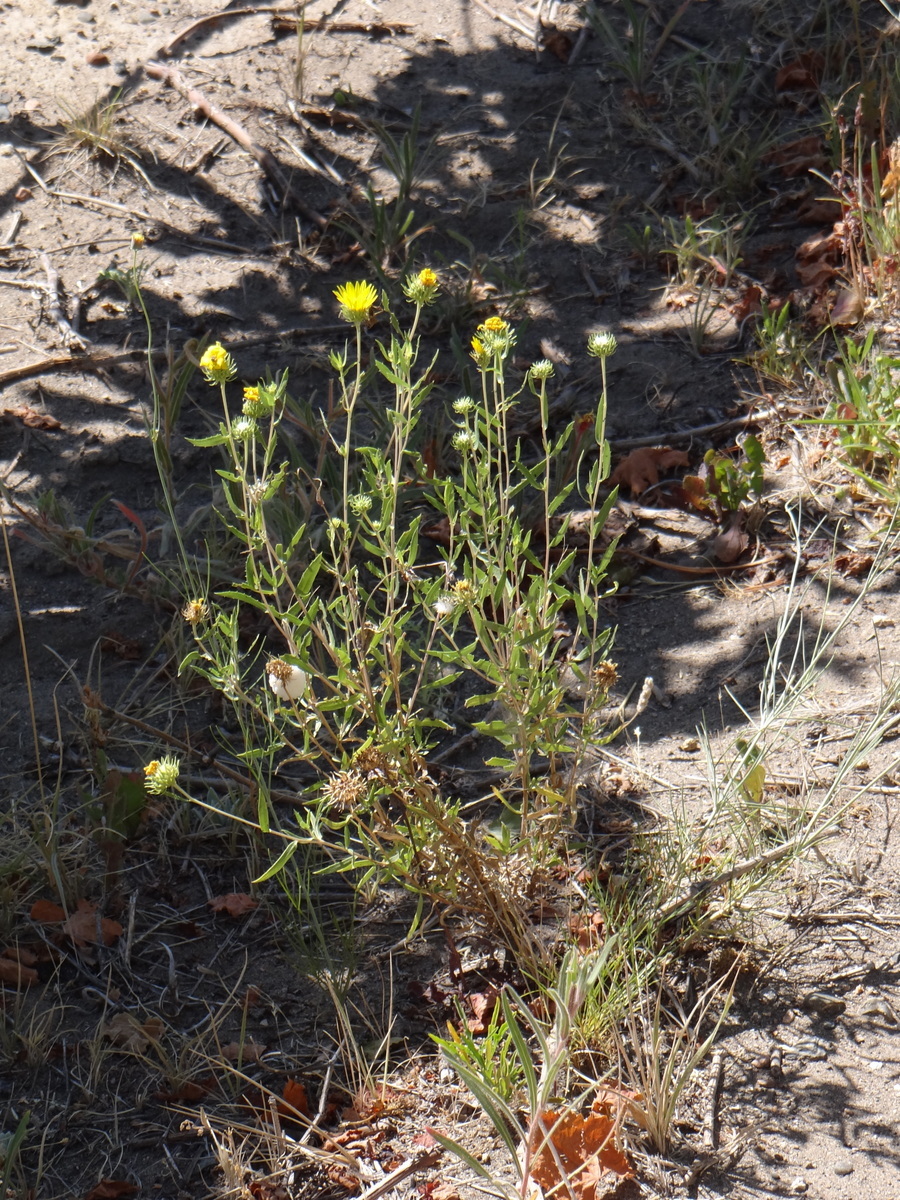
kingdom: Plantae
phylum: Tracheophyta
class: Magnoliopsida
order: Asterales
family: Asteraceae
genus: Grindelia
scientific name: Grindelia brachystephana
